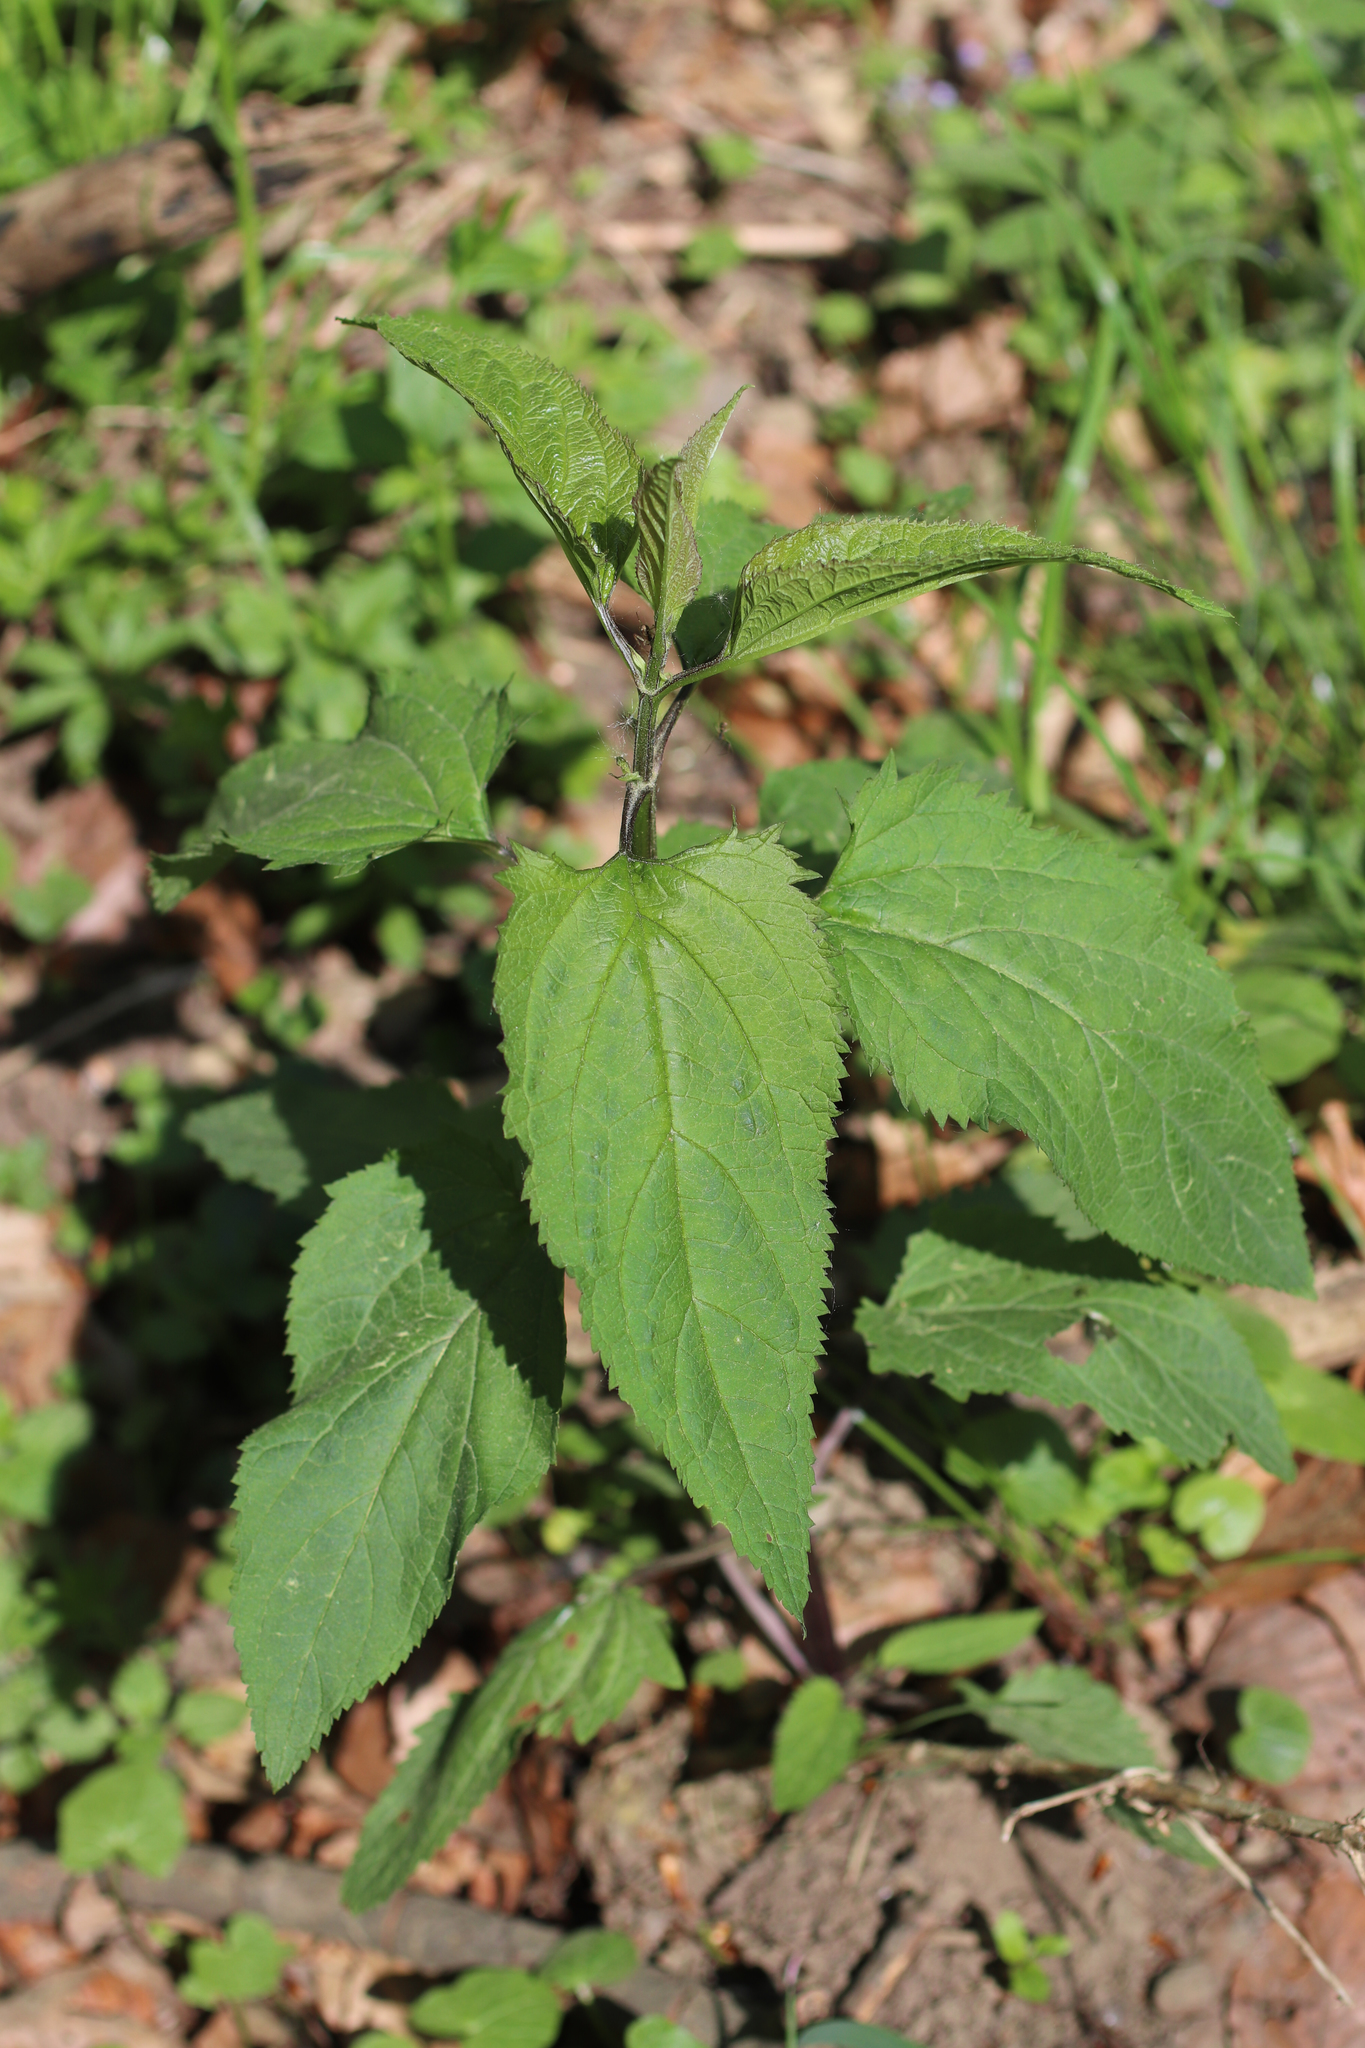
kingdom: Plantae
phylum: Tracheophyta
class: Magnoliopsida
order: Lamiales
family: Scrophulariaceae
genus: Scrophularia
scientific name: Scrophularia nodosa
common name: Common figwort
